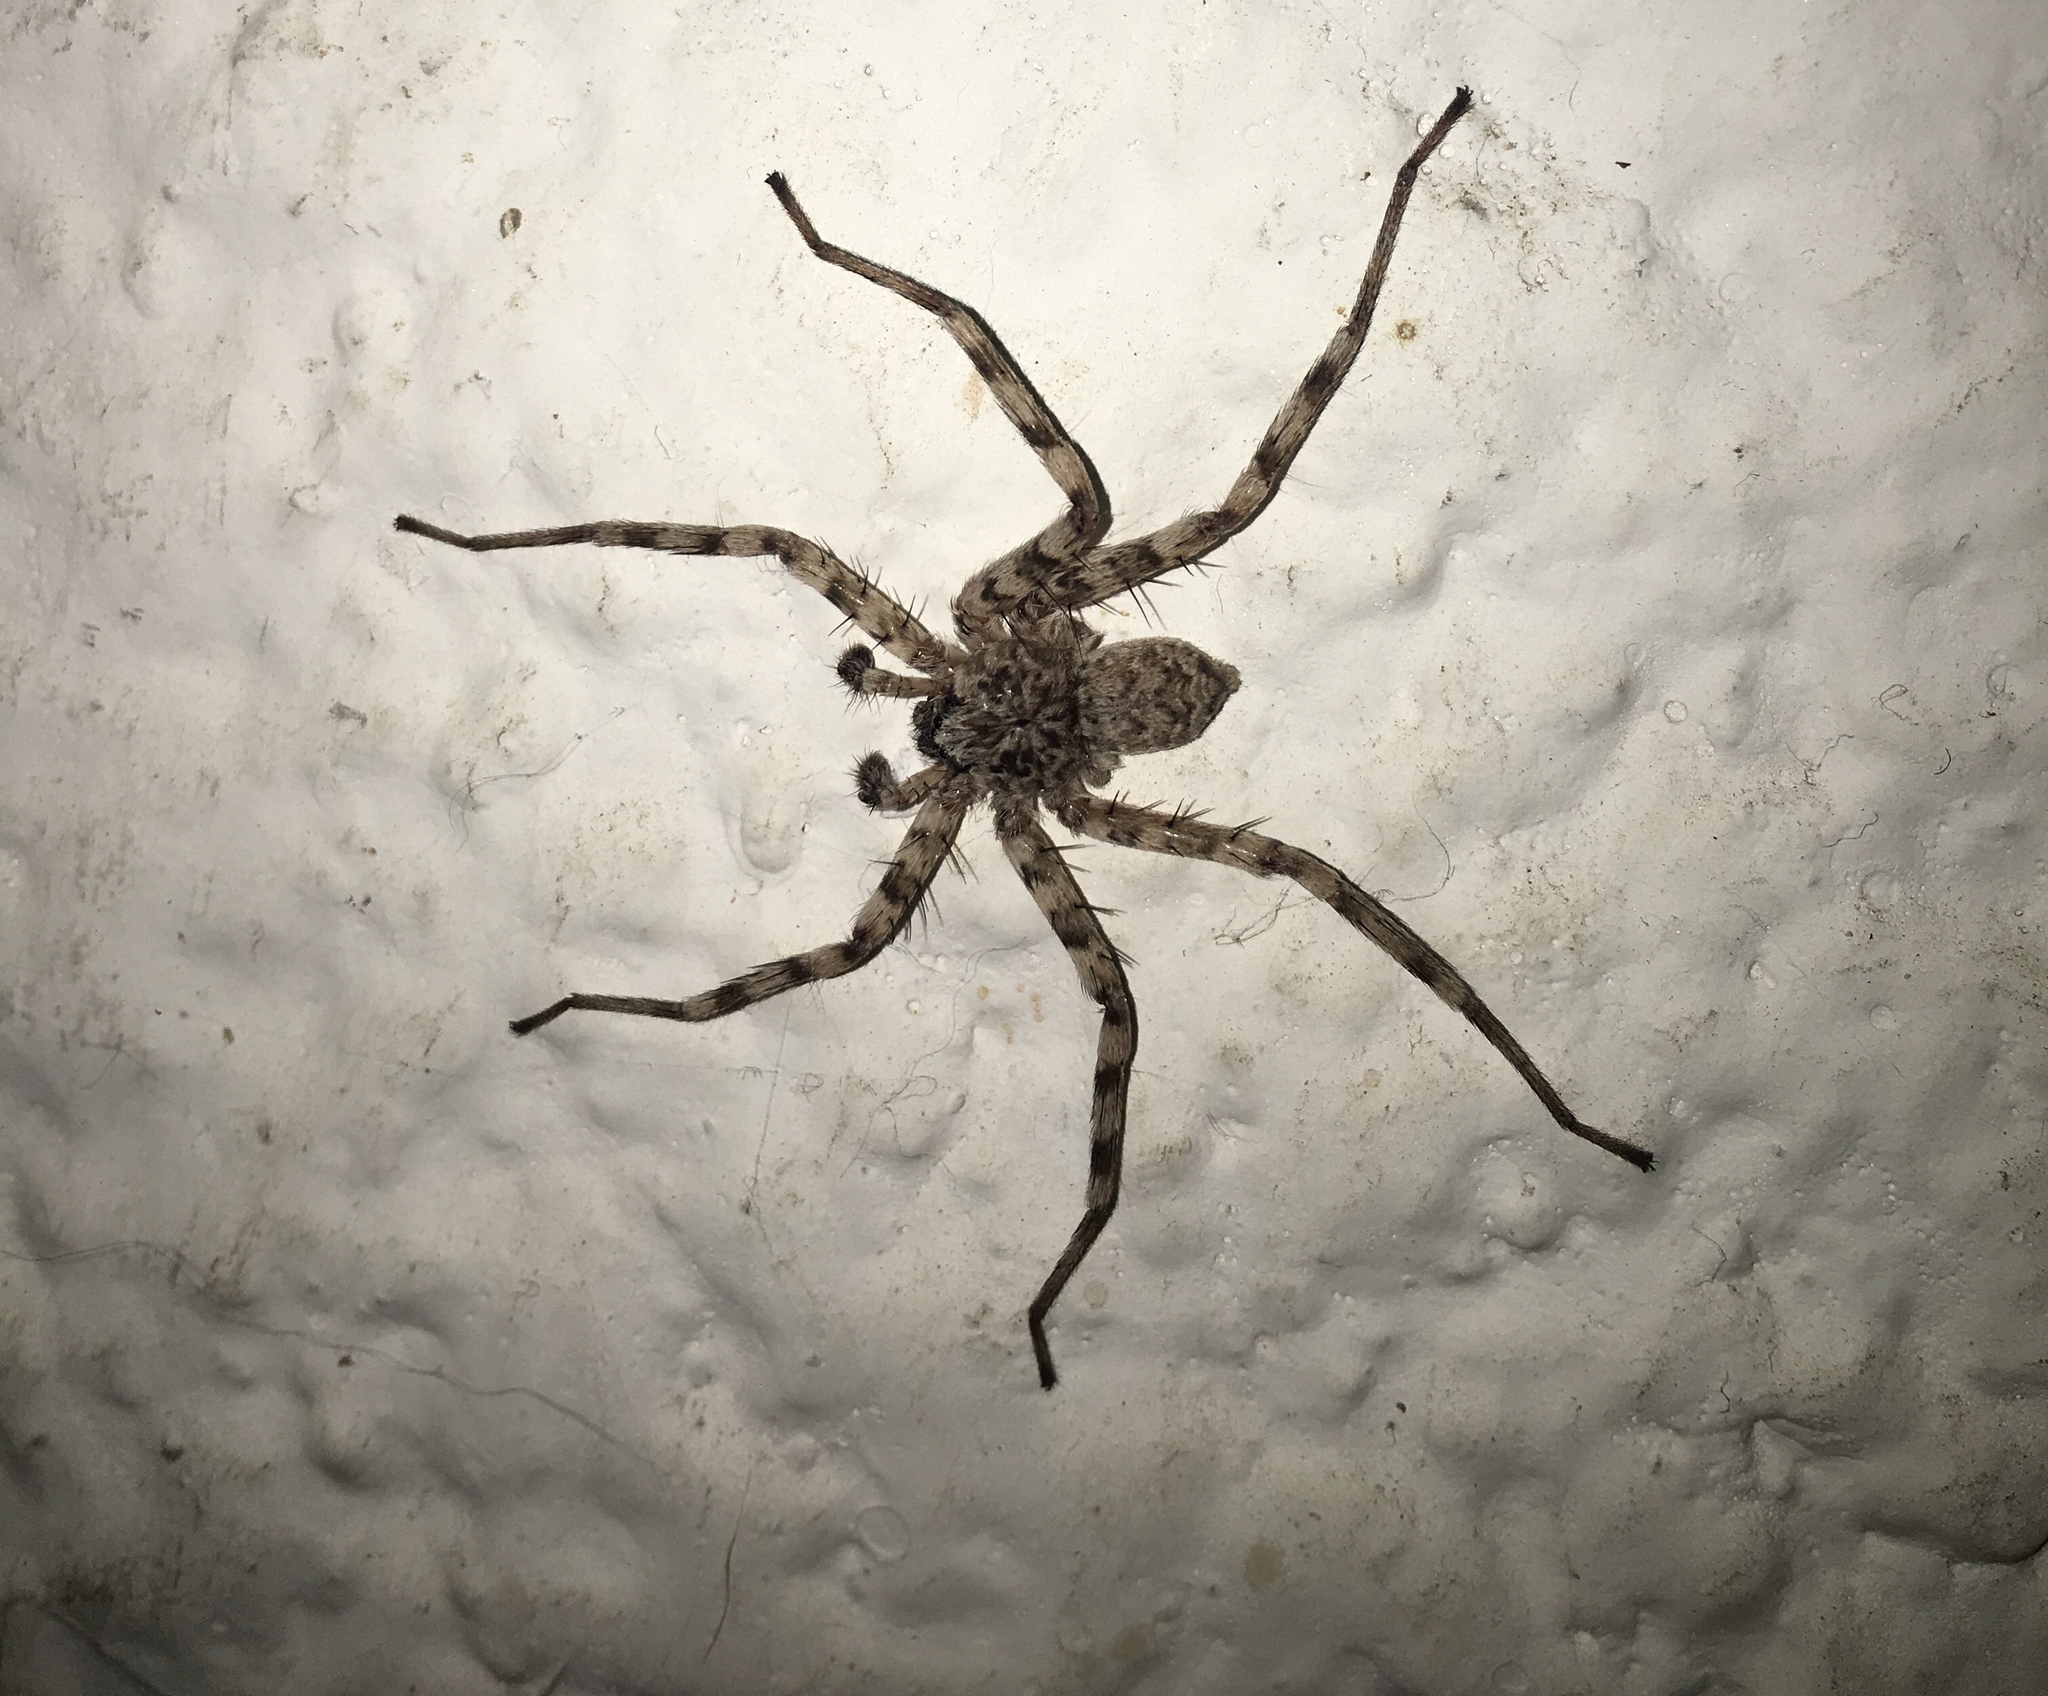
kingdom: Animalia
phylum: Arthropoda
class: Arachnida
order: Araneae
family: Selenopidae
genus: Selenops
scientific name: Selenops actophilus
